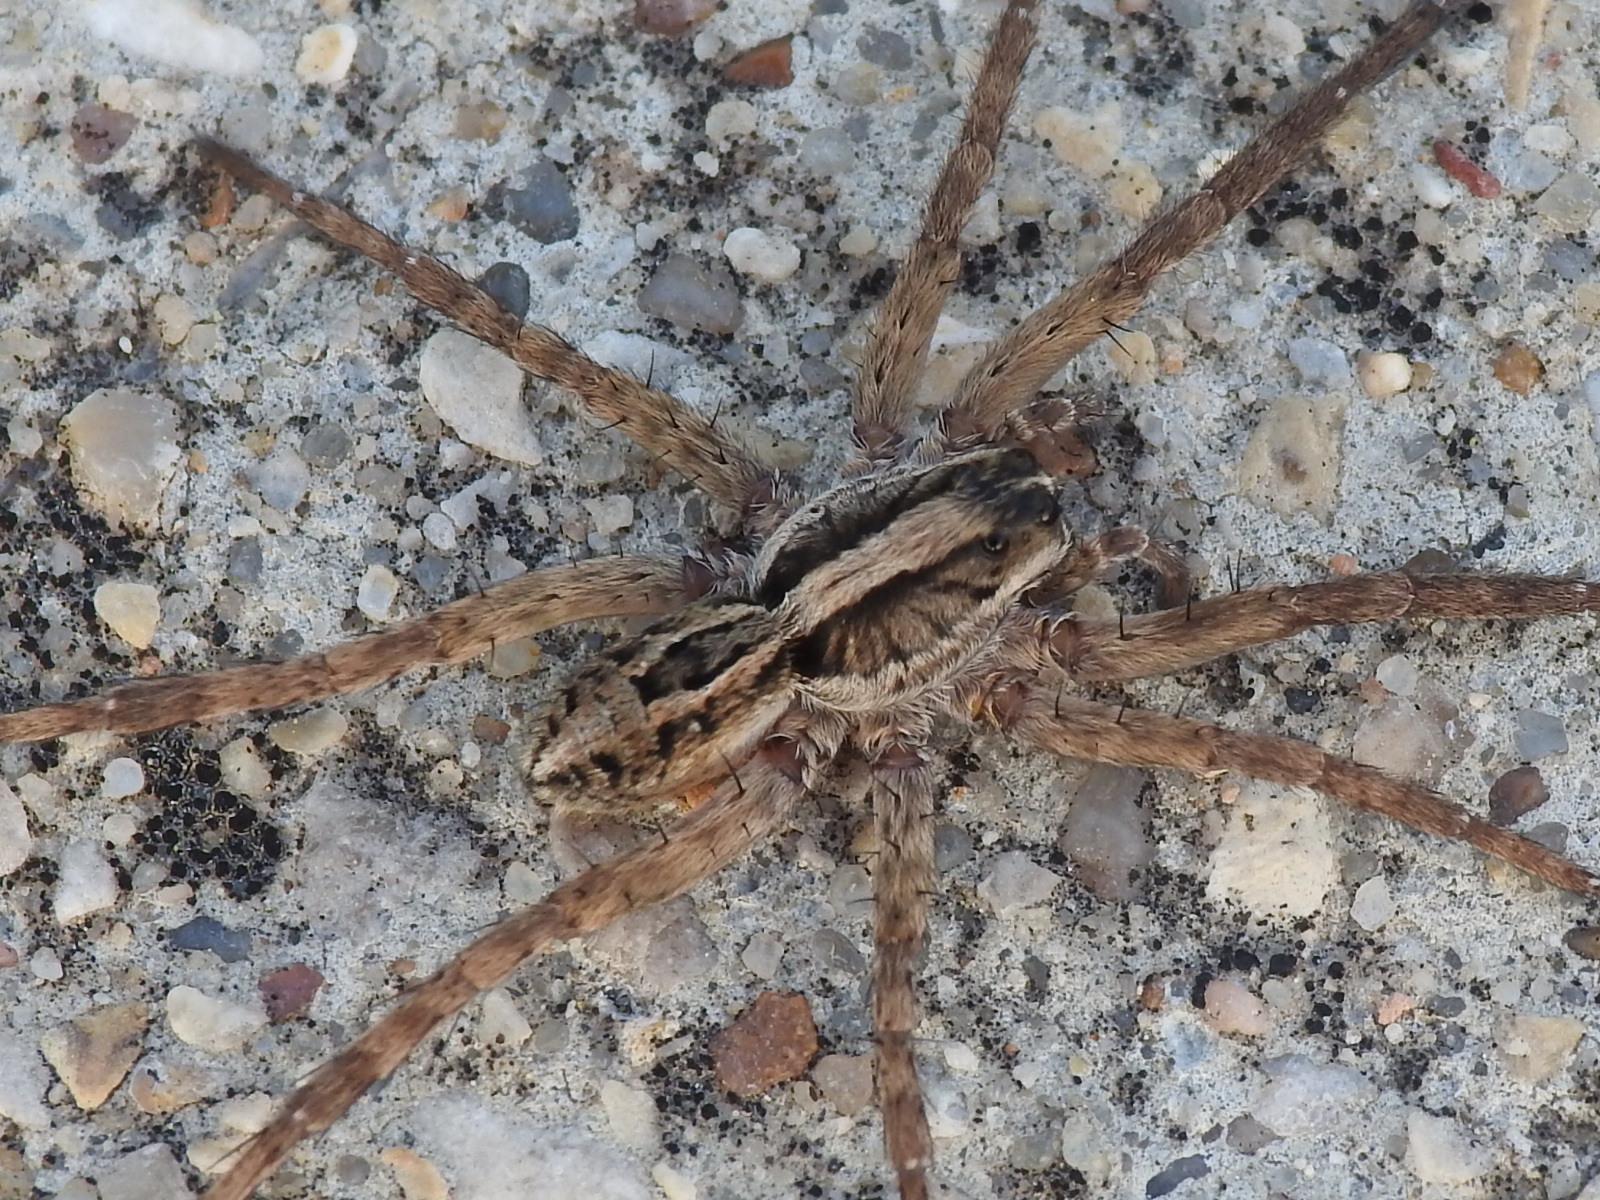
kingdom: Animalia
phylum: Arthropoda
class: Arachnida
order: Araneae
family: Lycosidae
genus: Schizocosa
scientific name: Schizocosa avida
